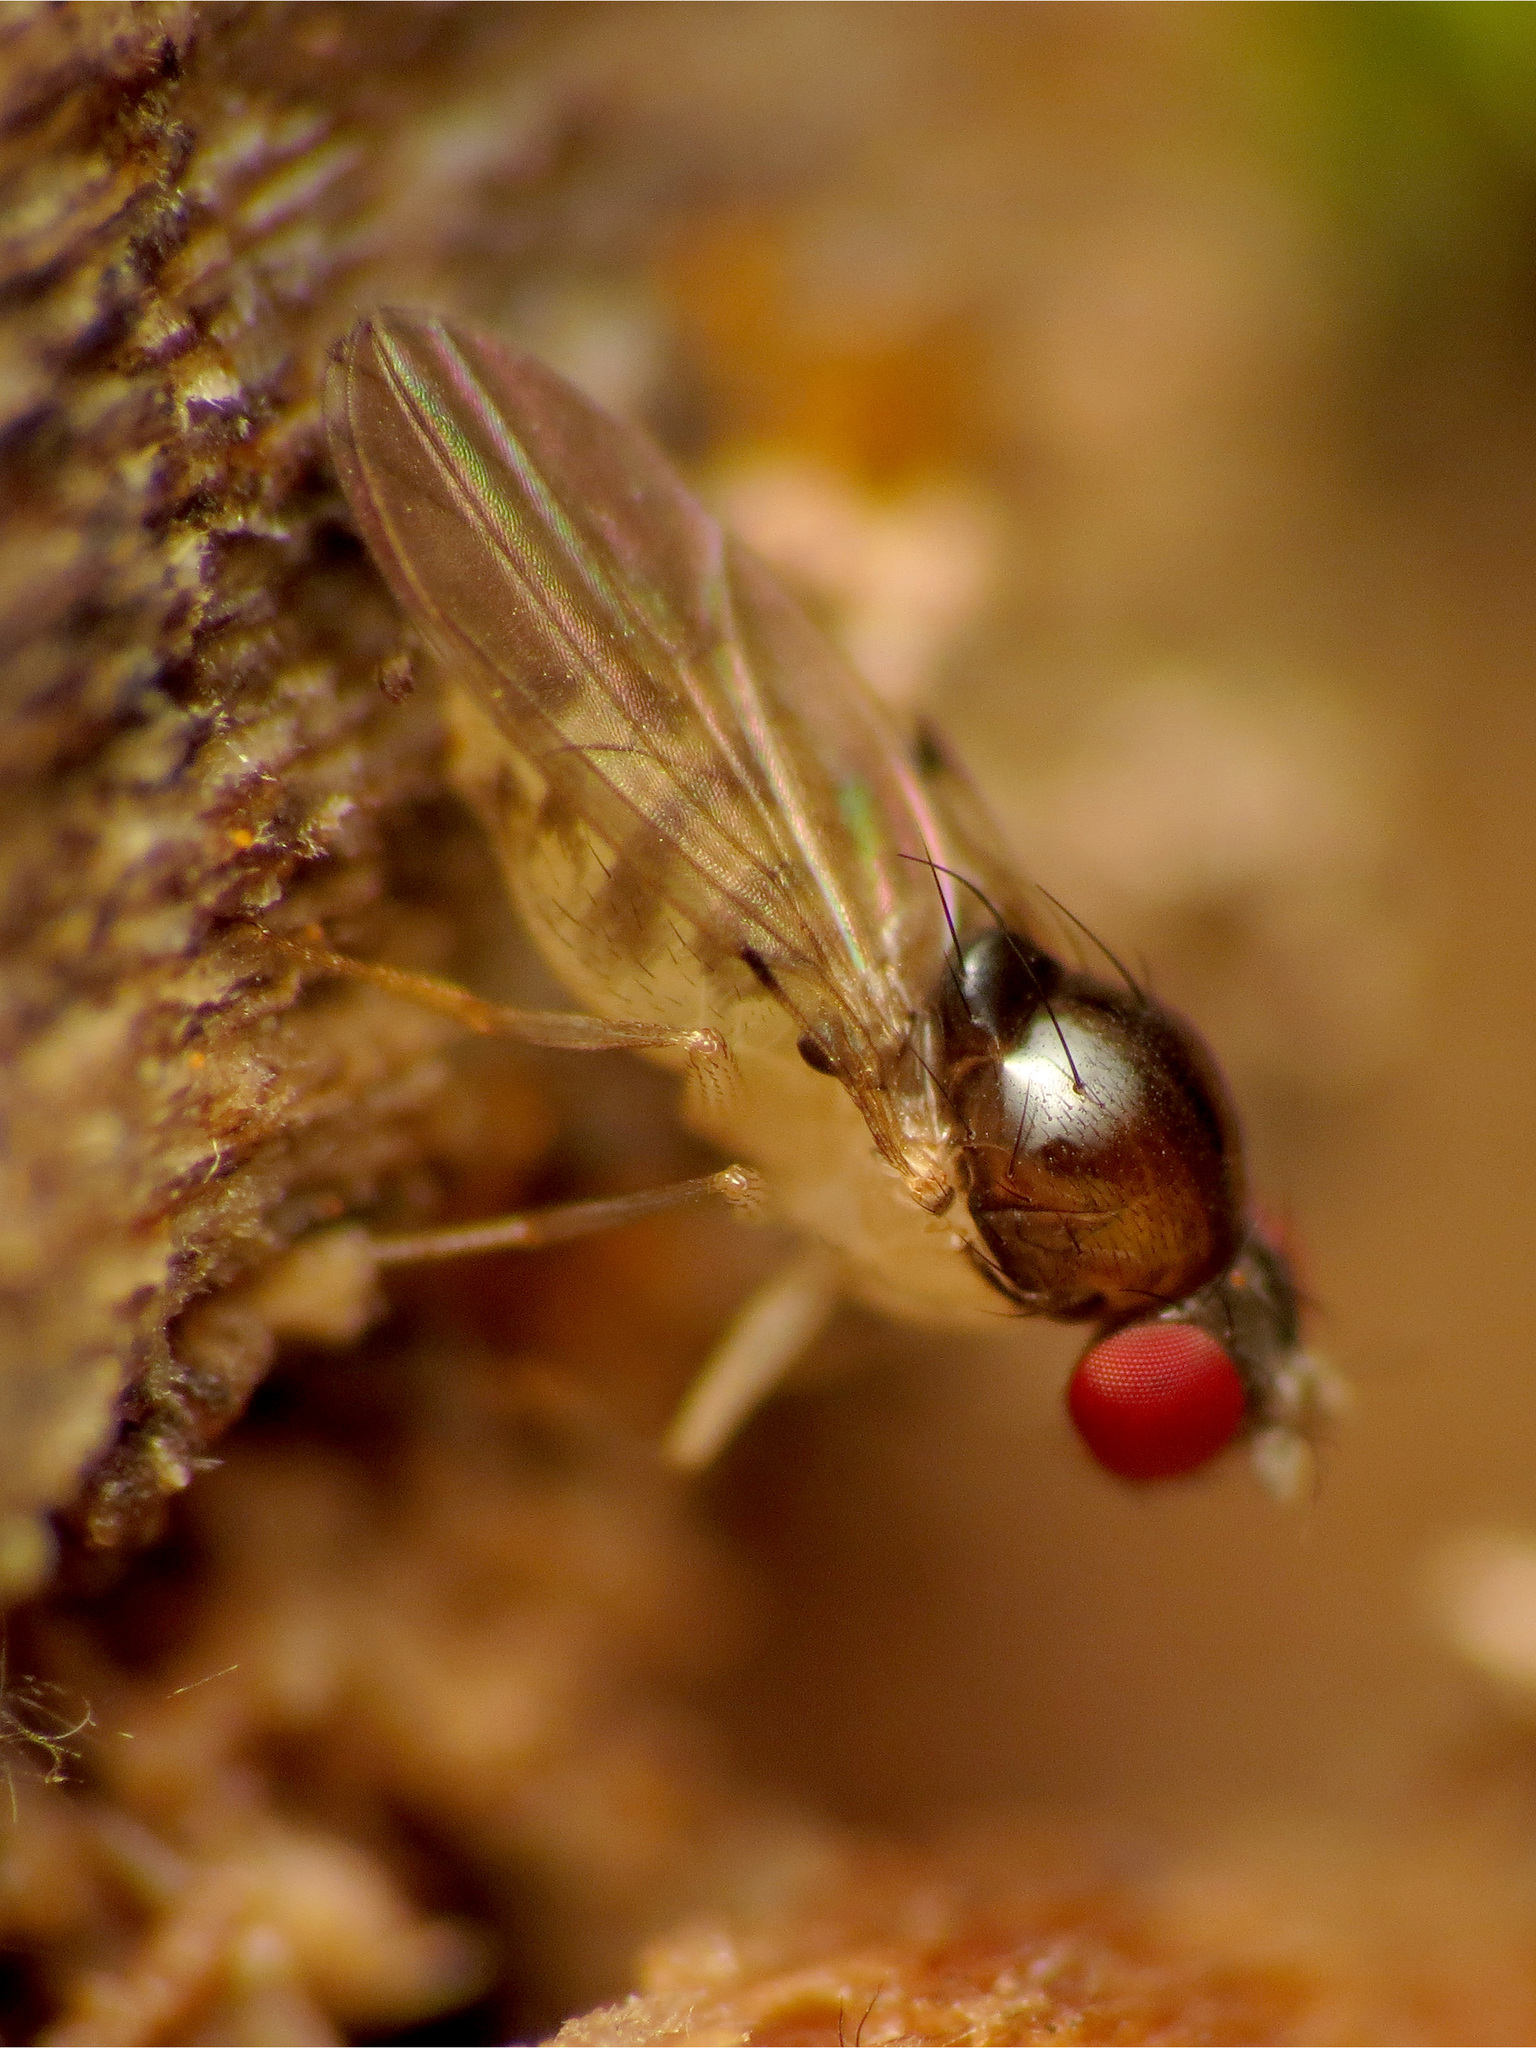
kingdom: Animalia
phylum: Arthropoda
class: Insecta
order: Diptera
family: Drosophilidae
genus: Mycodrosophila
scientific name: Mycodrosophila claytonae
